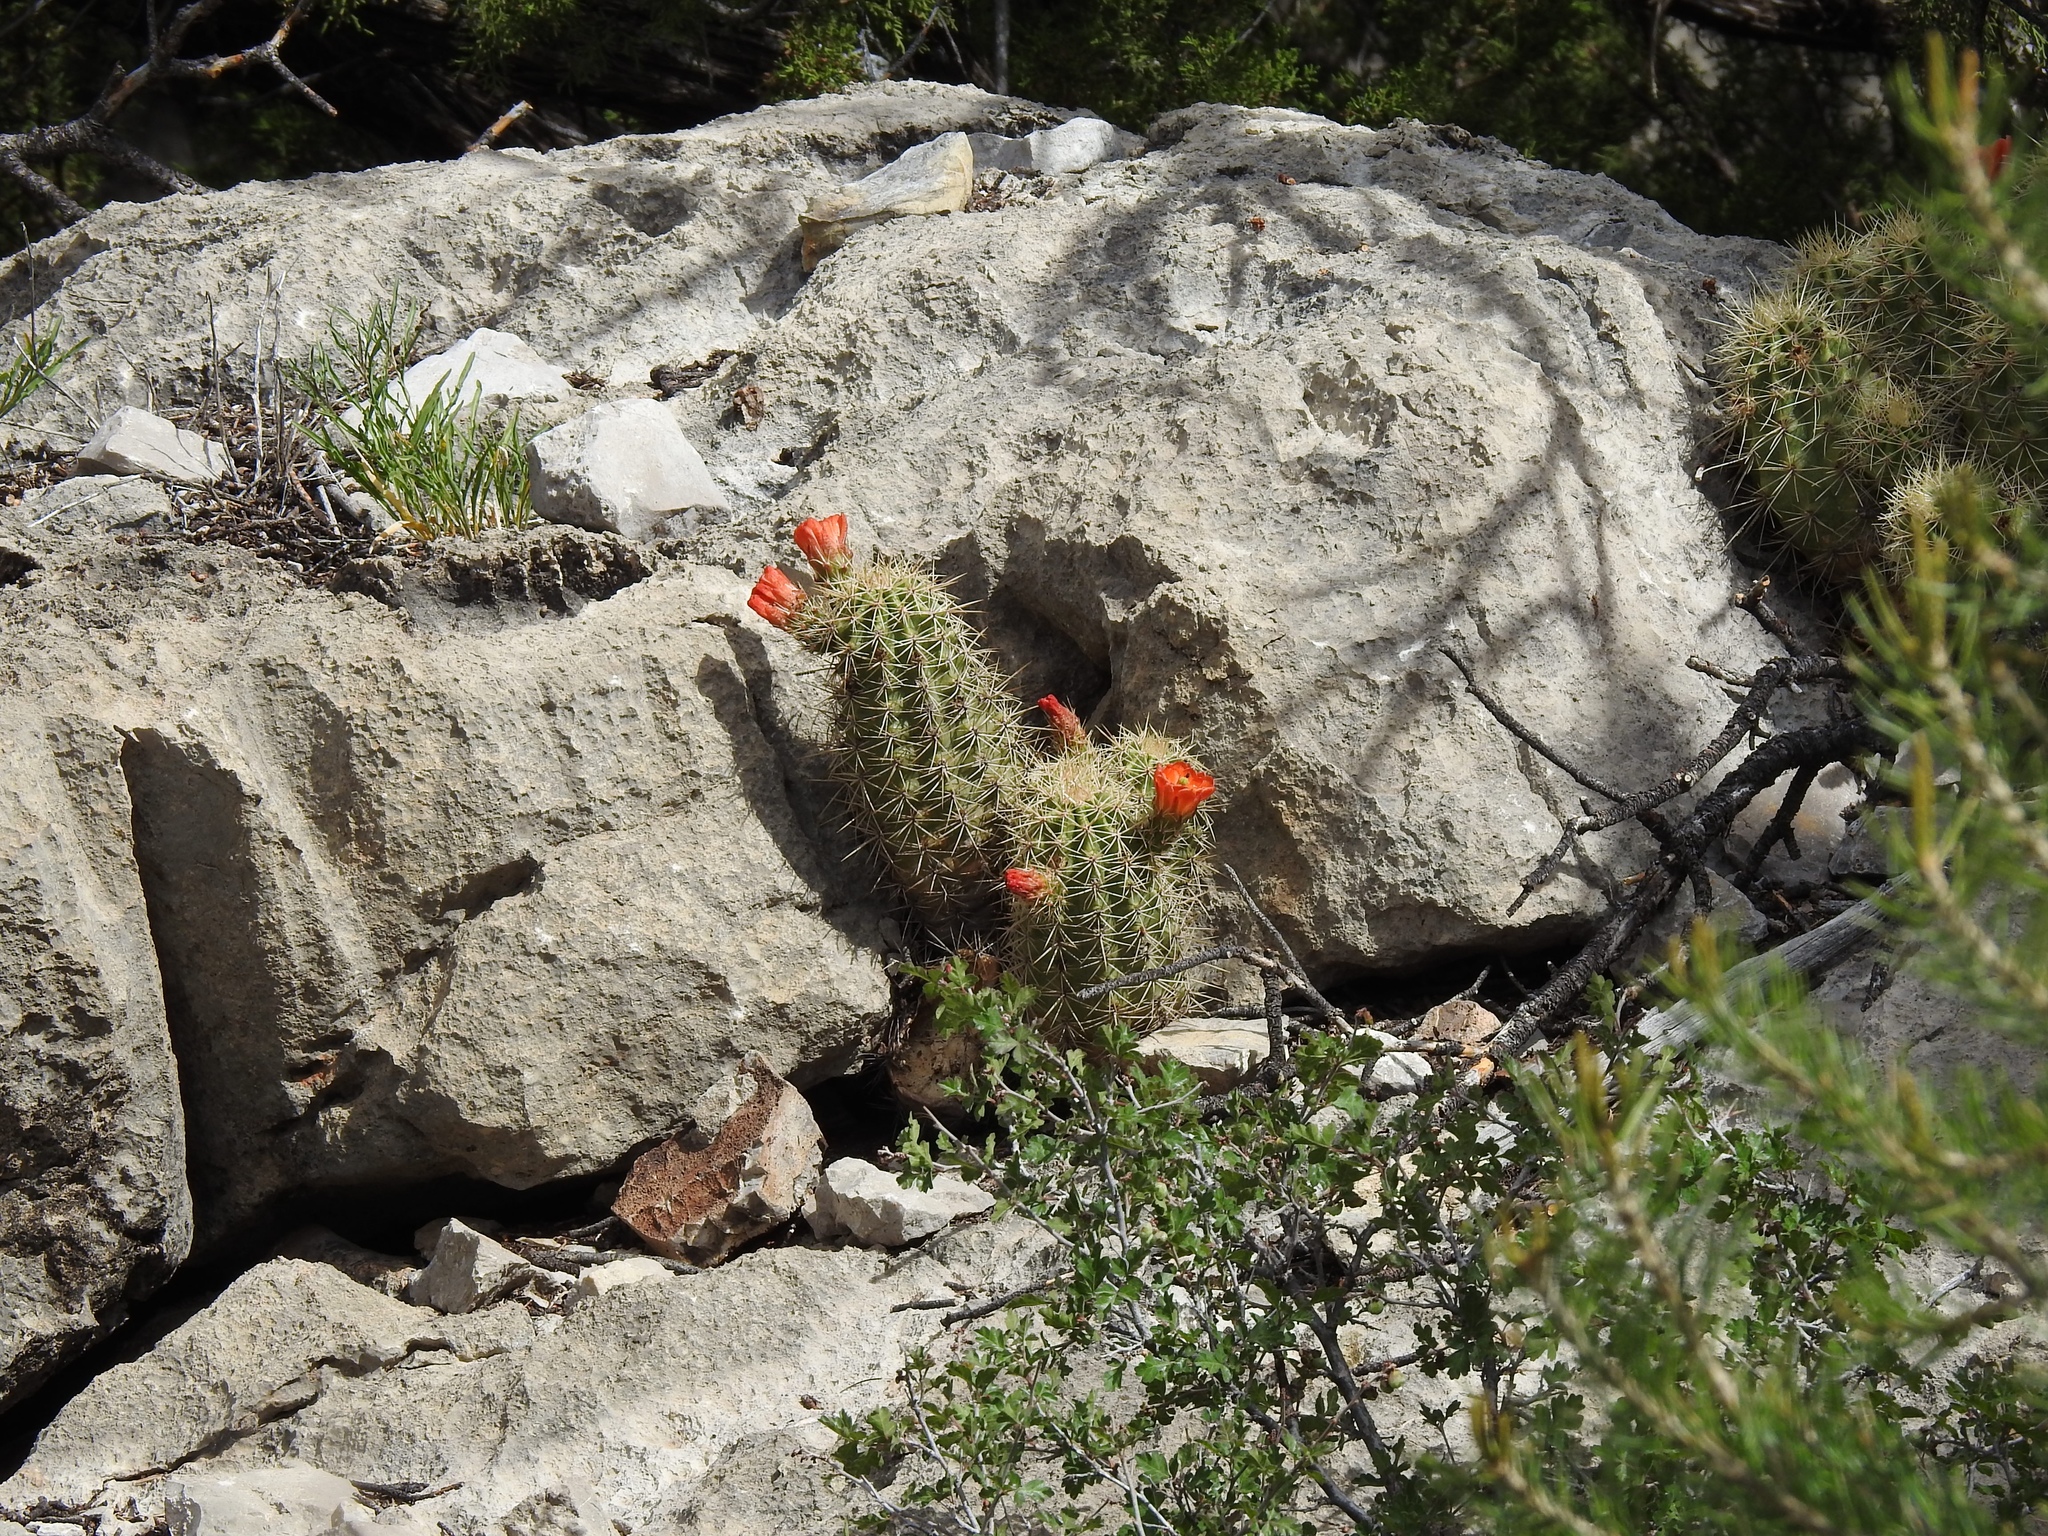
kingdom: Plantae
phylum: Tracheophyta
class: Magnoliopsida
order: Caryophyllales
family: Cactaceae
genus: Echinocereus
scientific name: Echinocereus coccineus
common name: Scarlet hedgehog cactus
